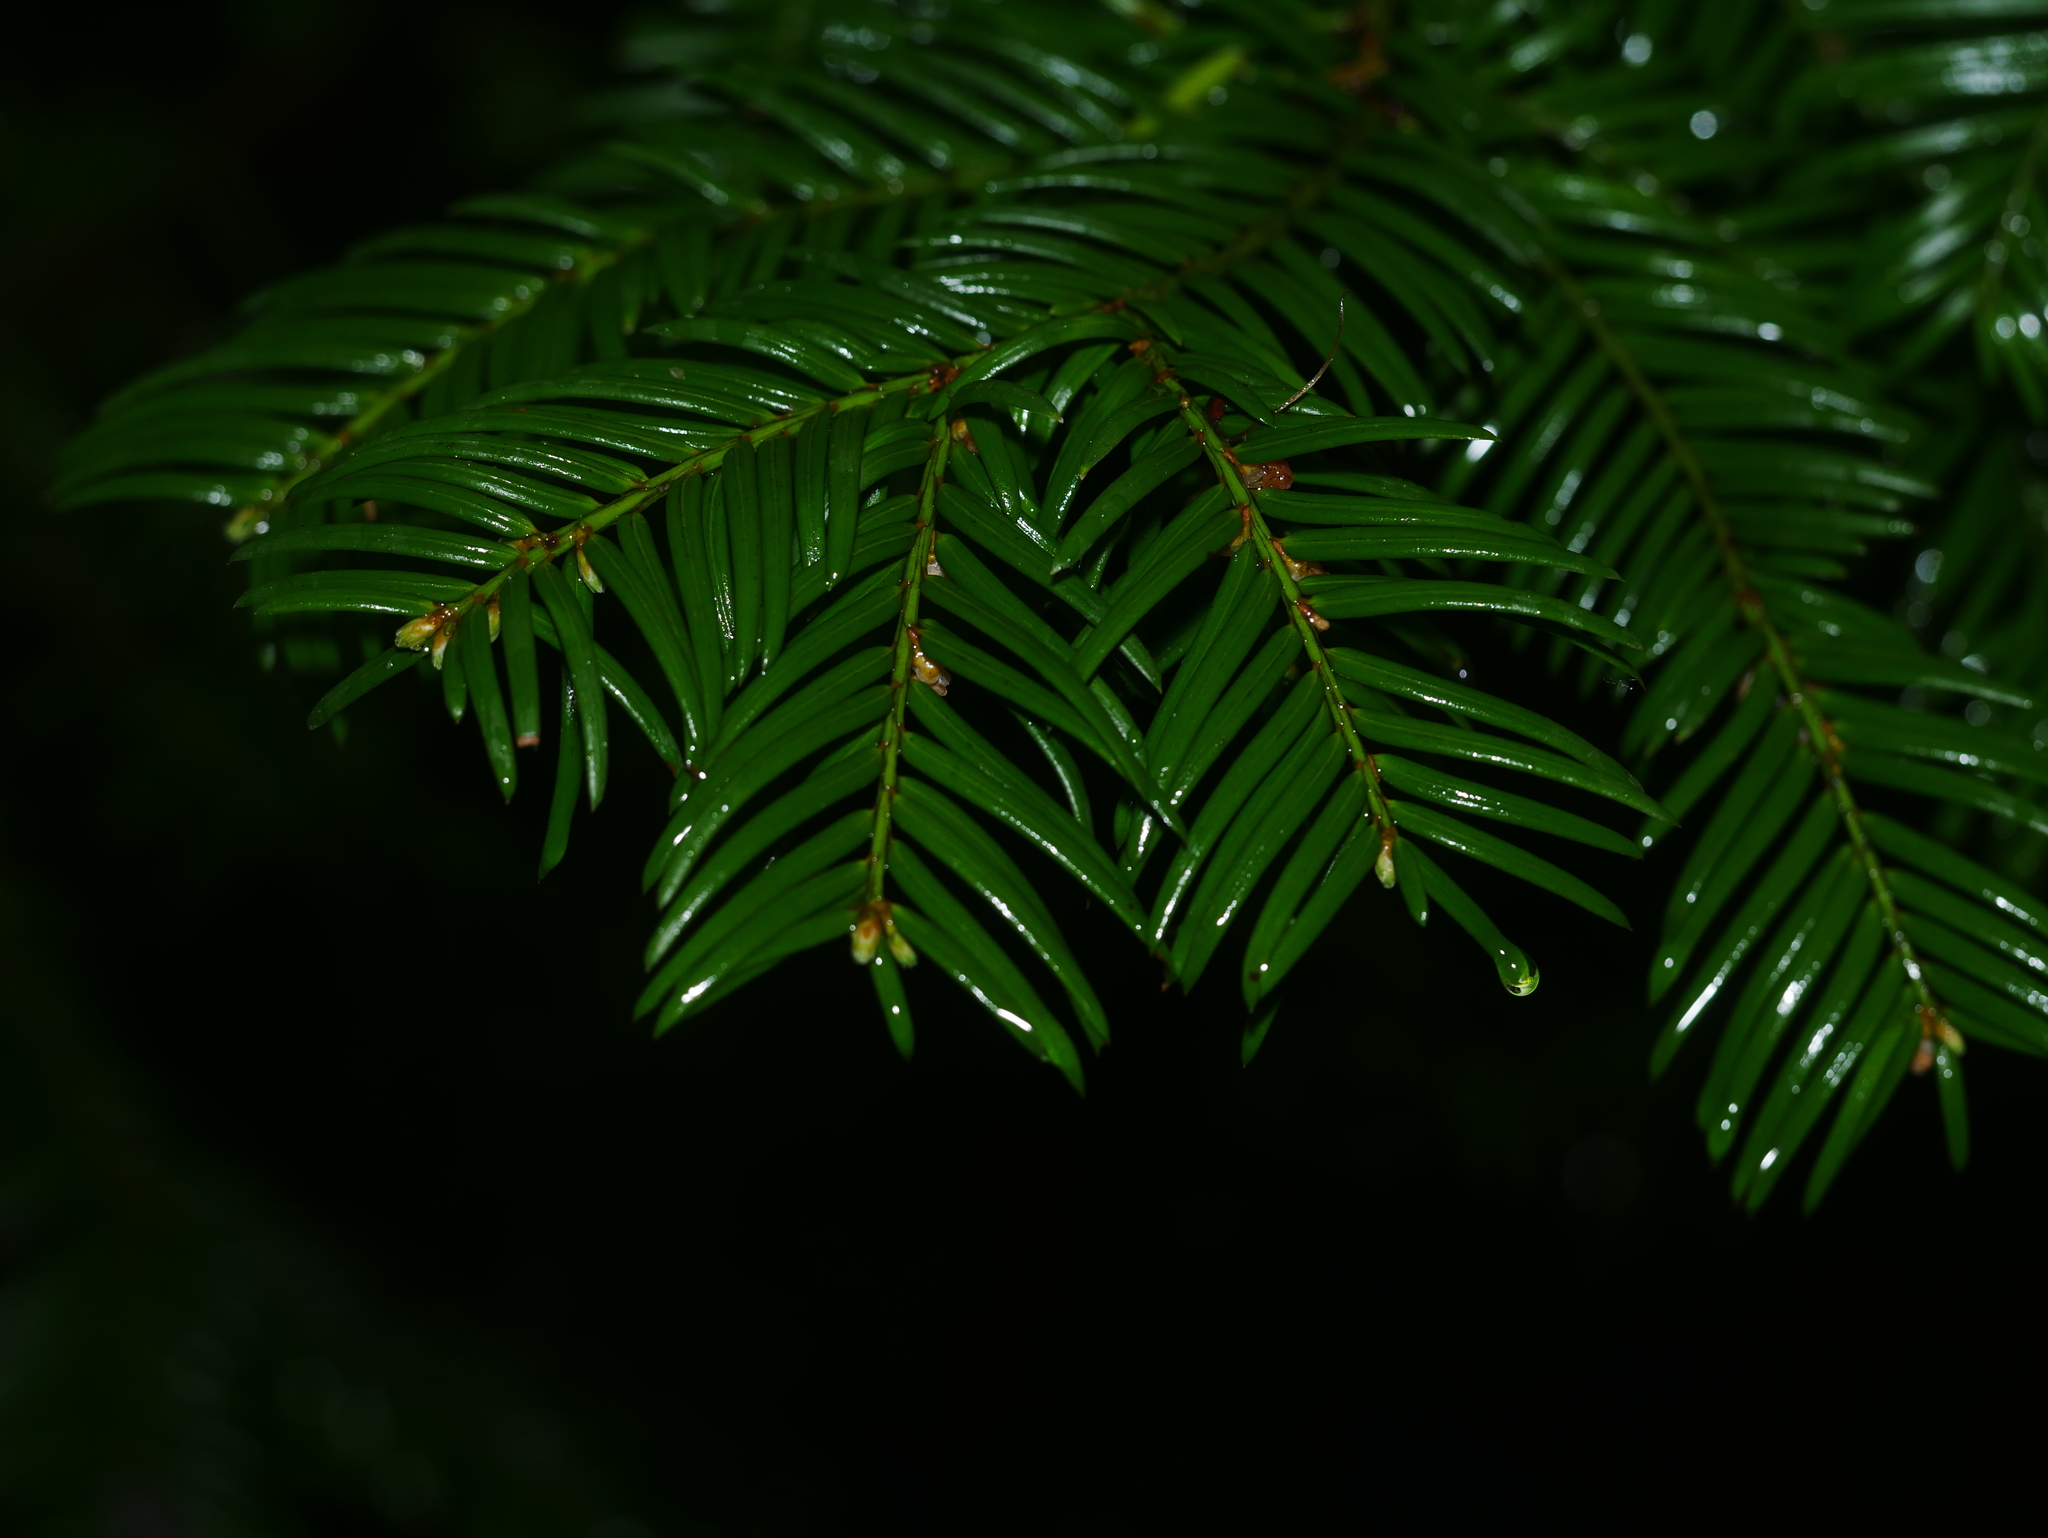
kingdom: Plantae
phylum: Tracheophyta
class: Pinopsida
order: Pinales
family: Taxaceae
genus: Taxus
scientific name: Taxus baccata
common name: Yew
